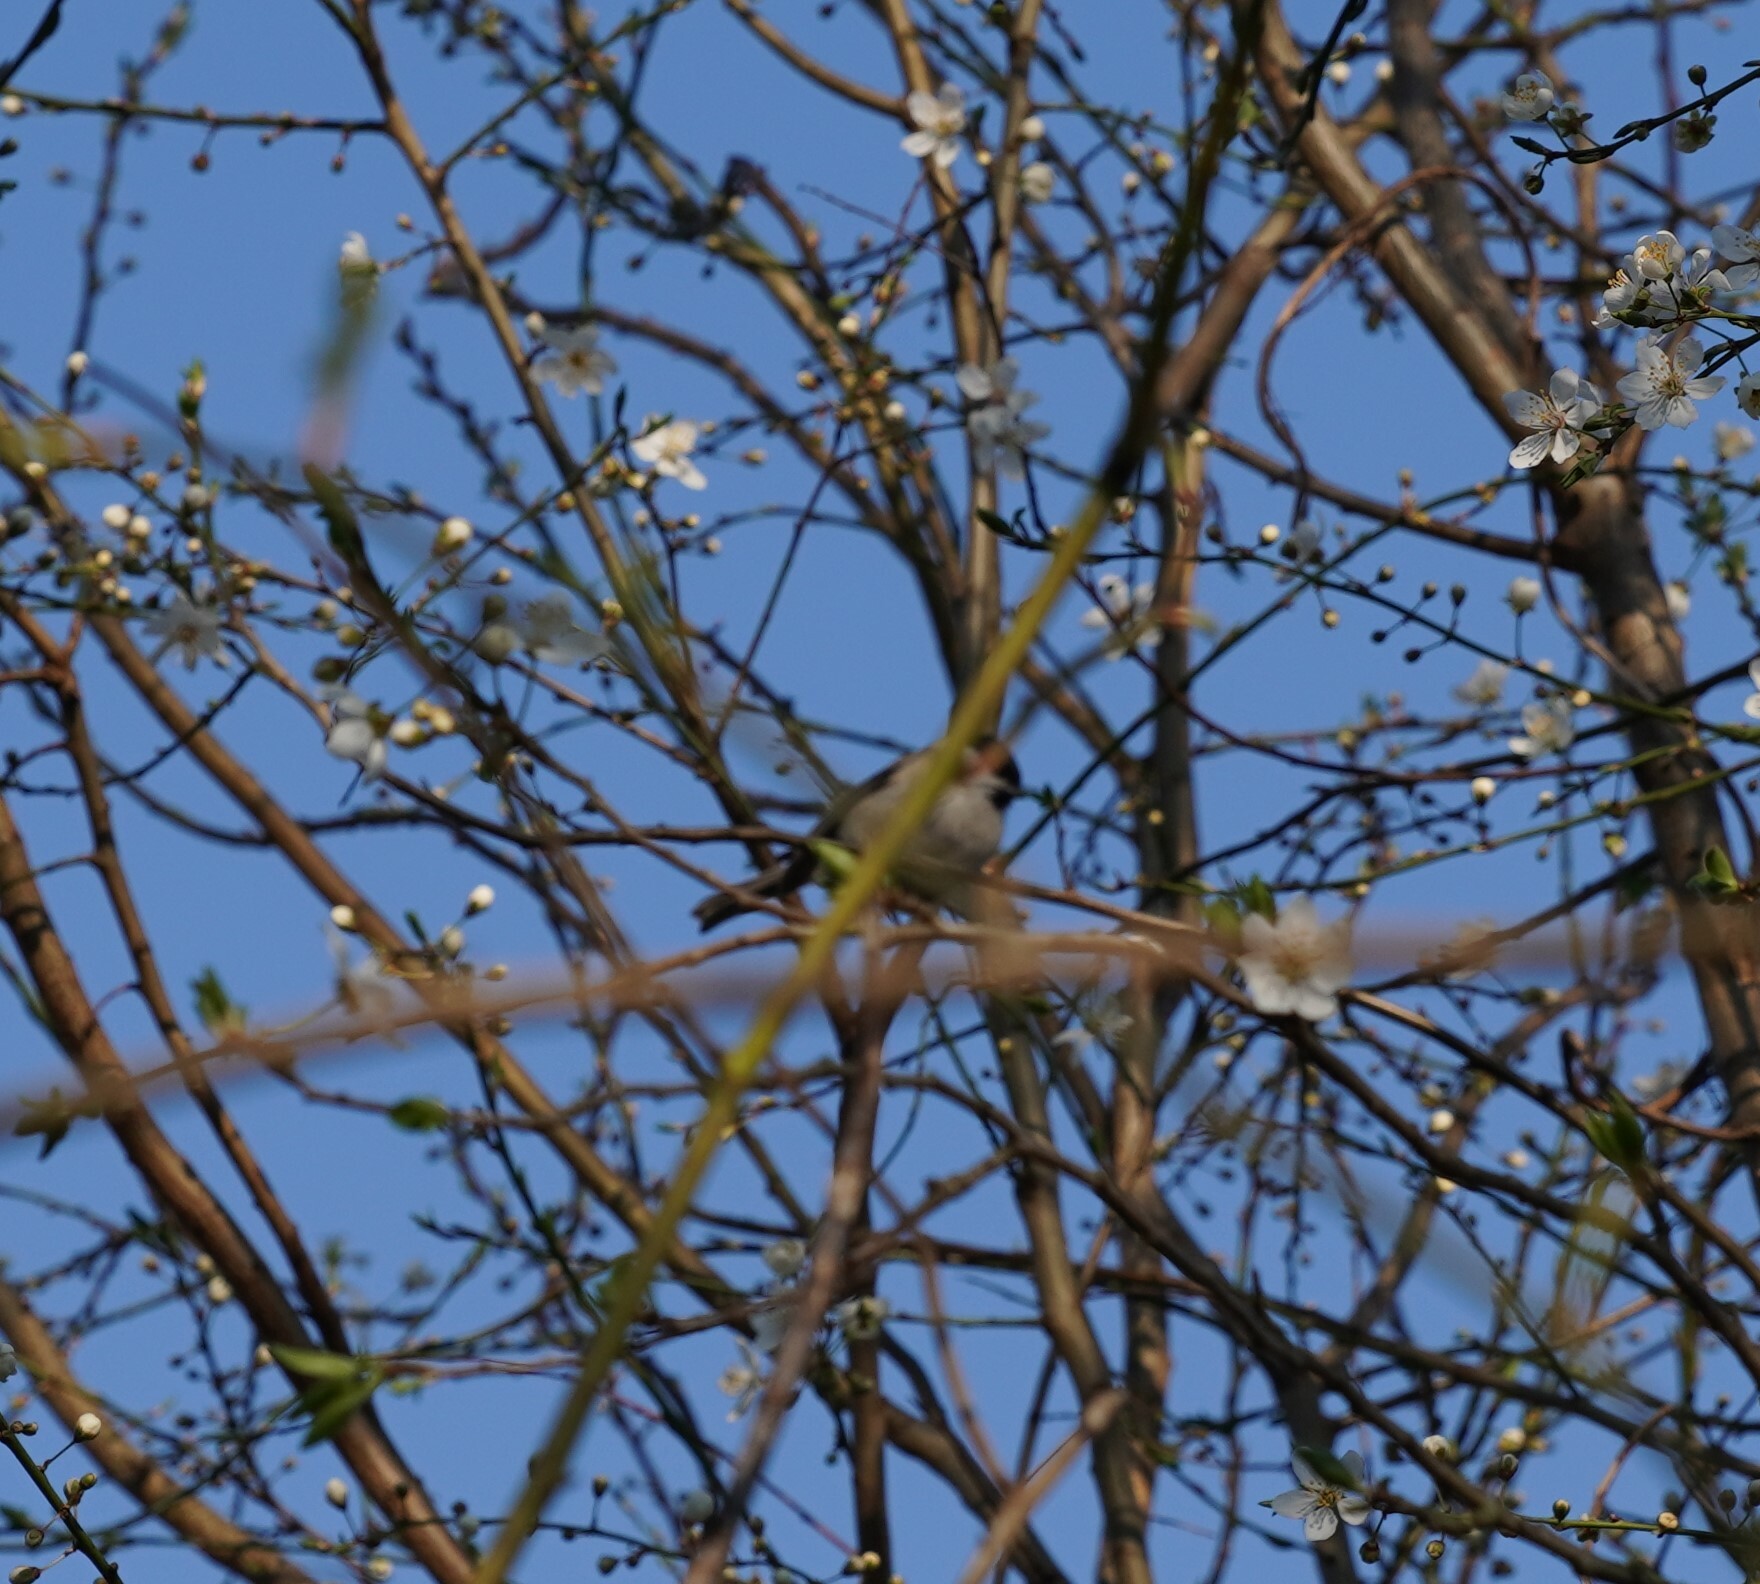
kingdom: Animalia
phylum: Chordata
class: Aves
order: Passeriformes
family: Paridae
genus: Poecile
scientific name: Poecile palustris
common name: Marsh tit
